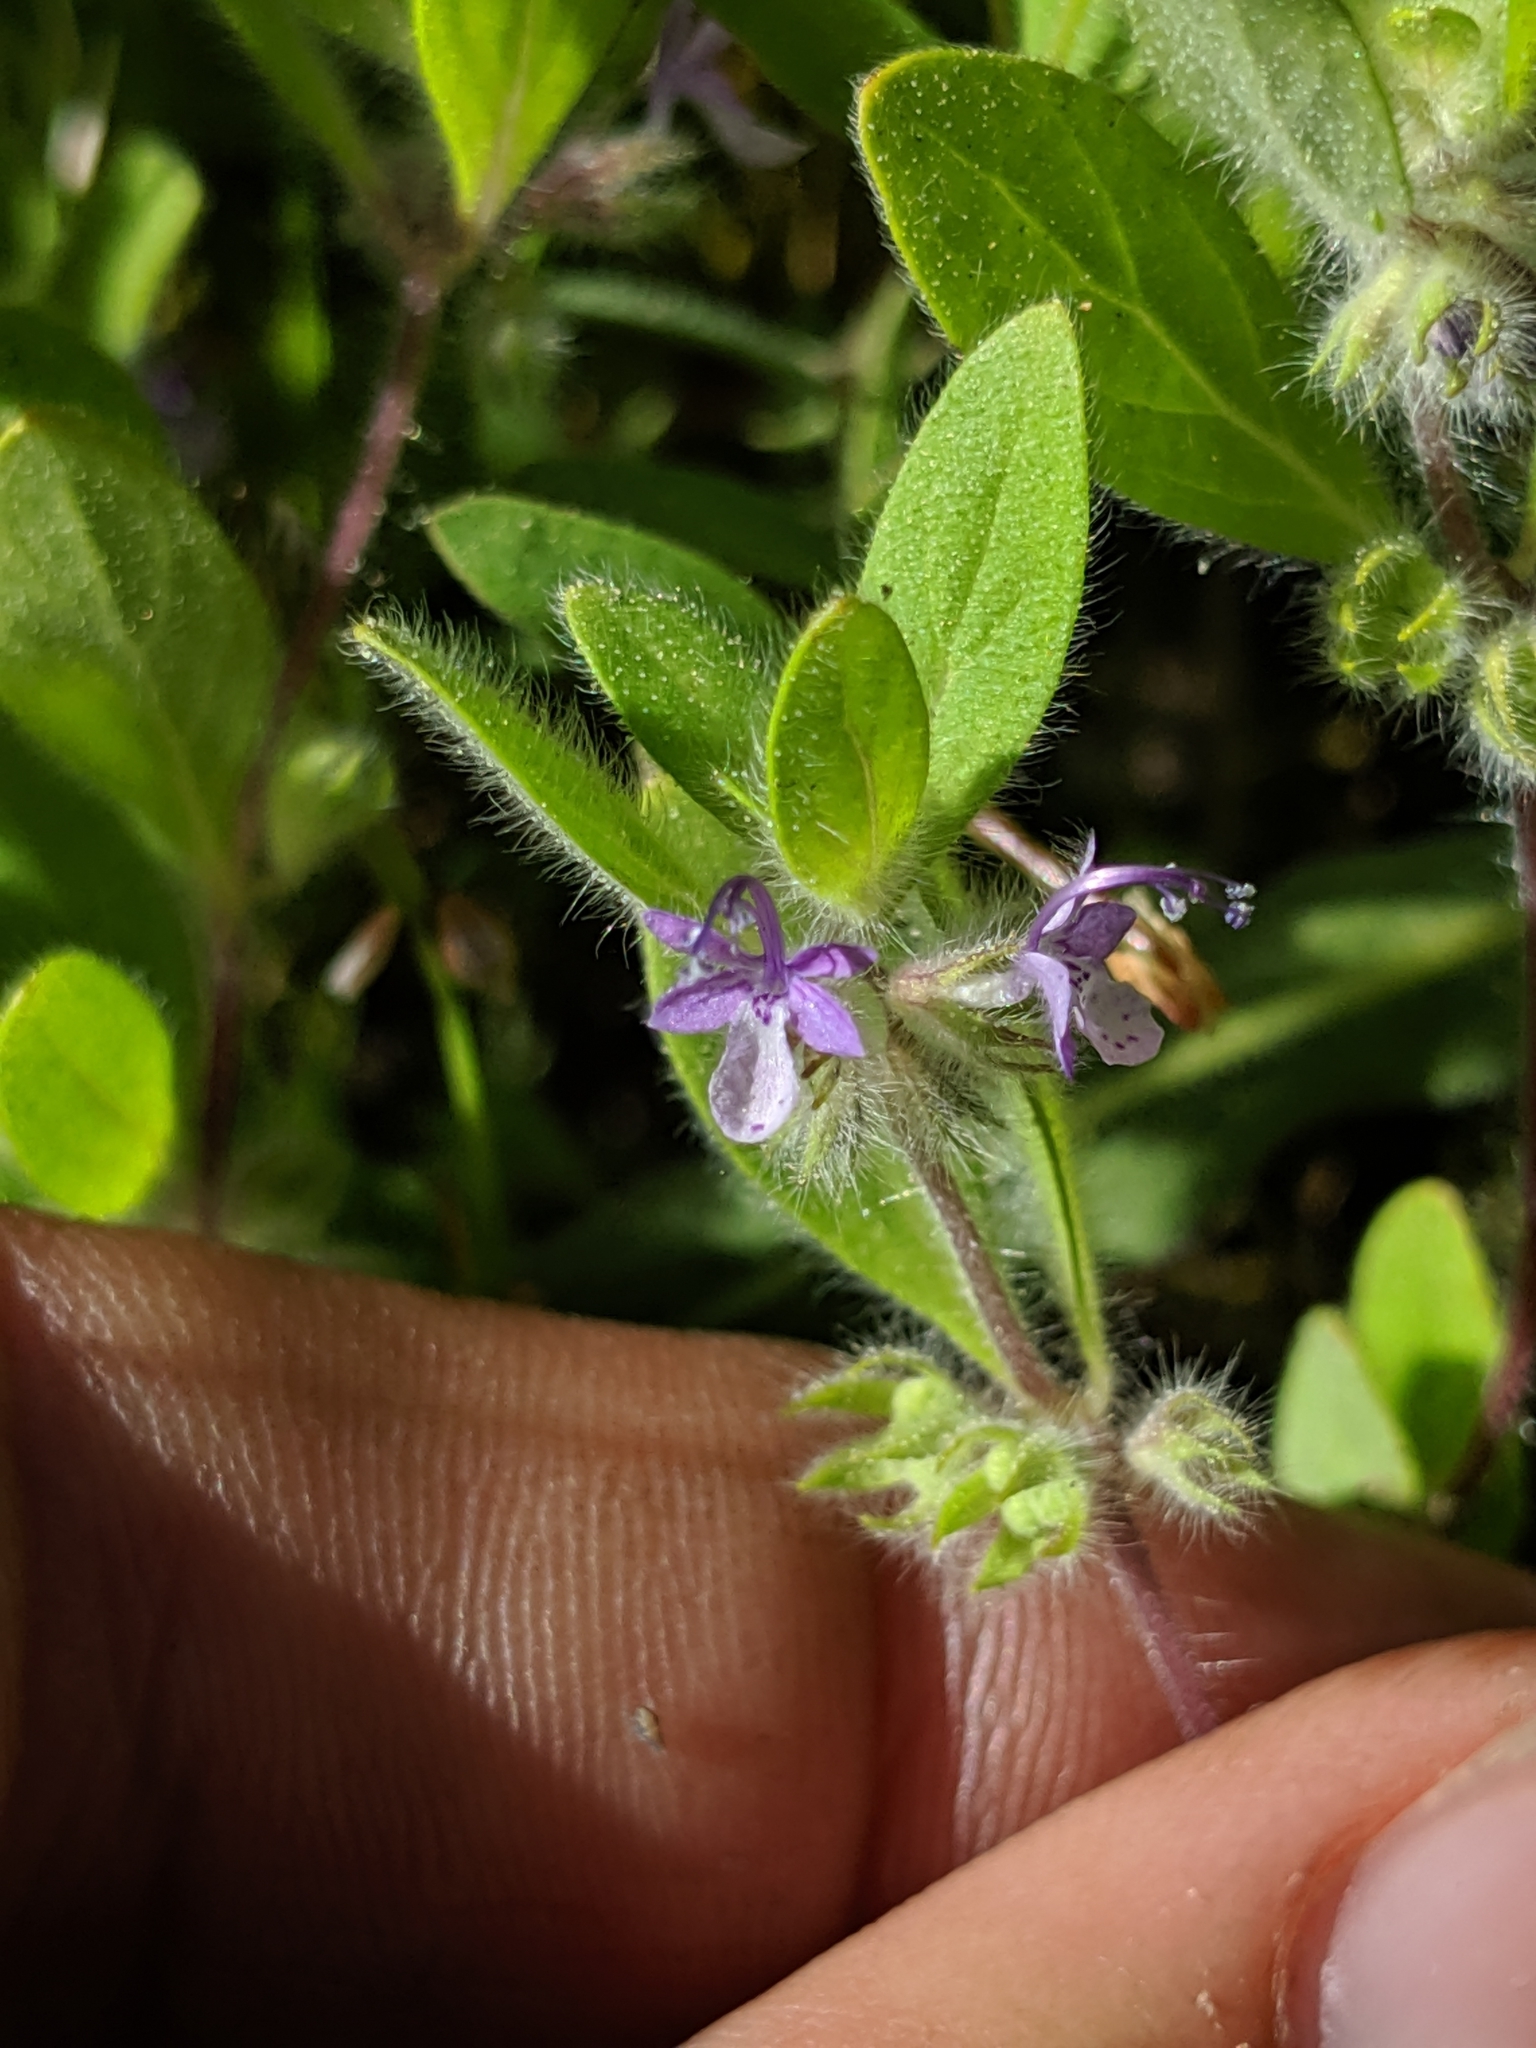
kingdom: Plantae
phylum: Tracheophyta
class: Magnoliopsida
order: Lamiales
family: Lamiaceae
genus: Trichostema
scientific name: Trichostema oblongum
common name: Mountain bluecurls
